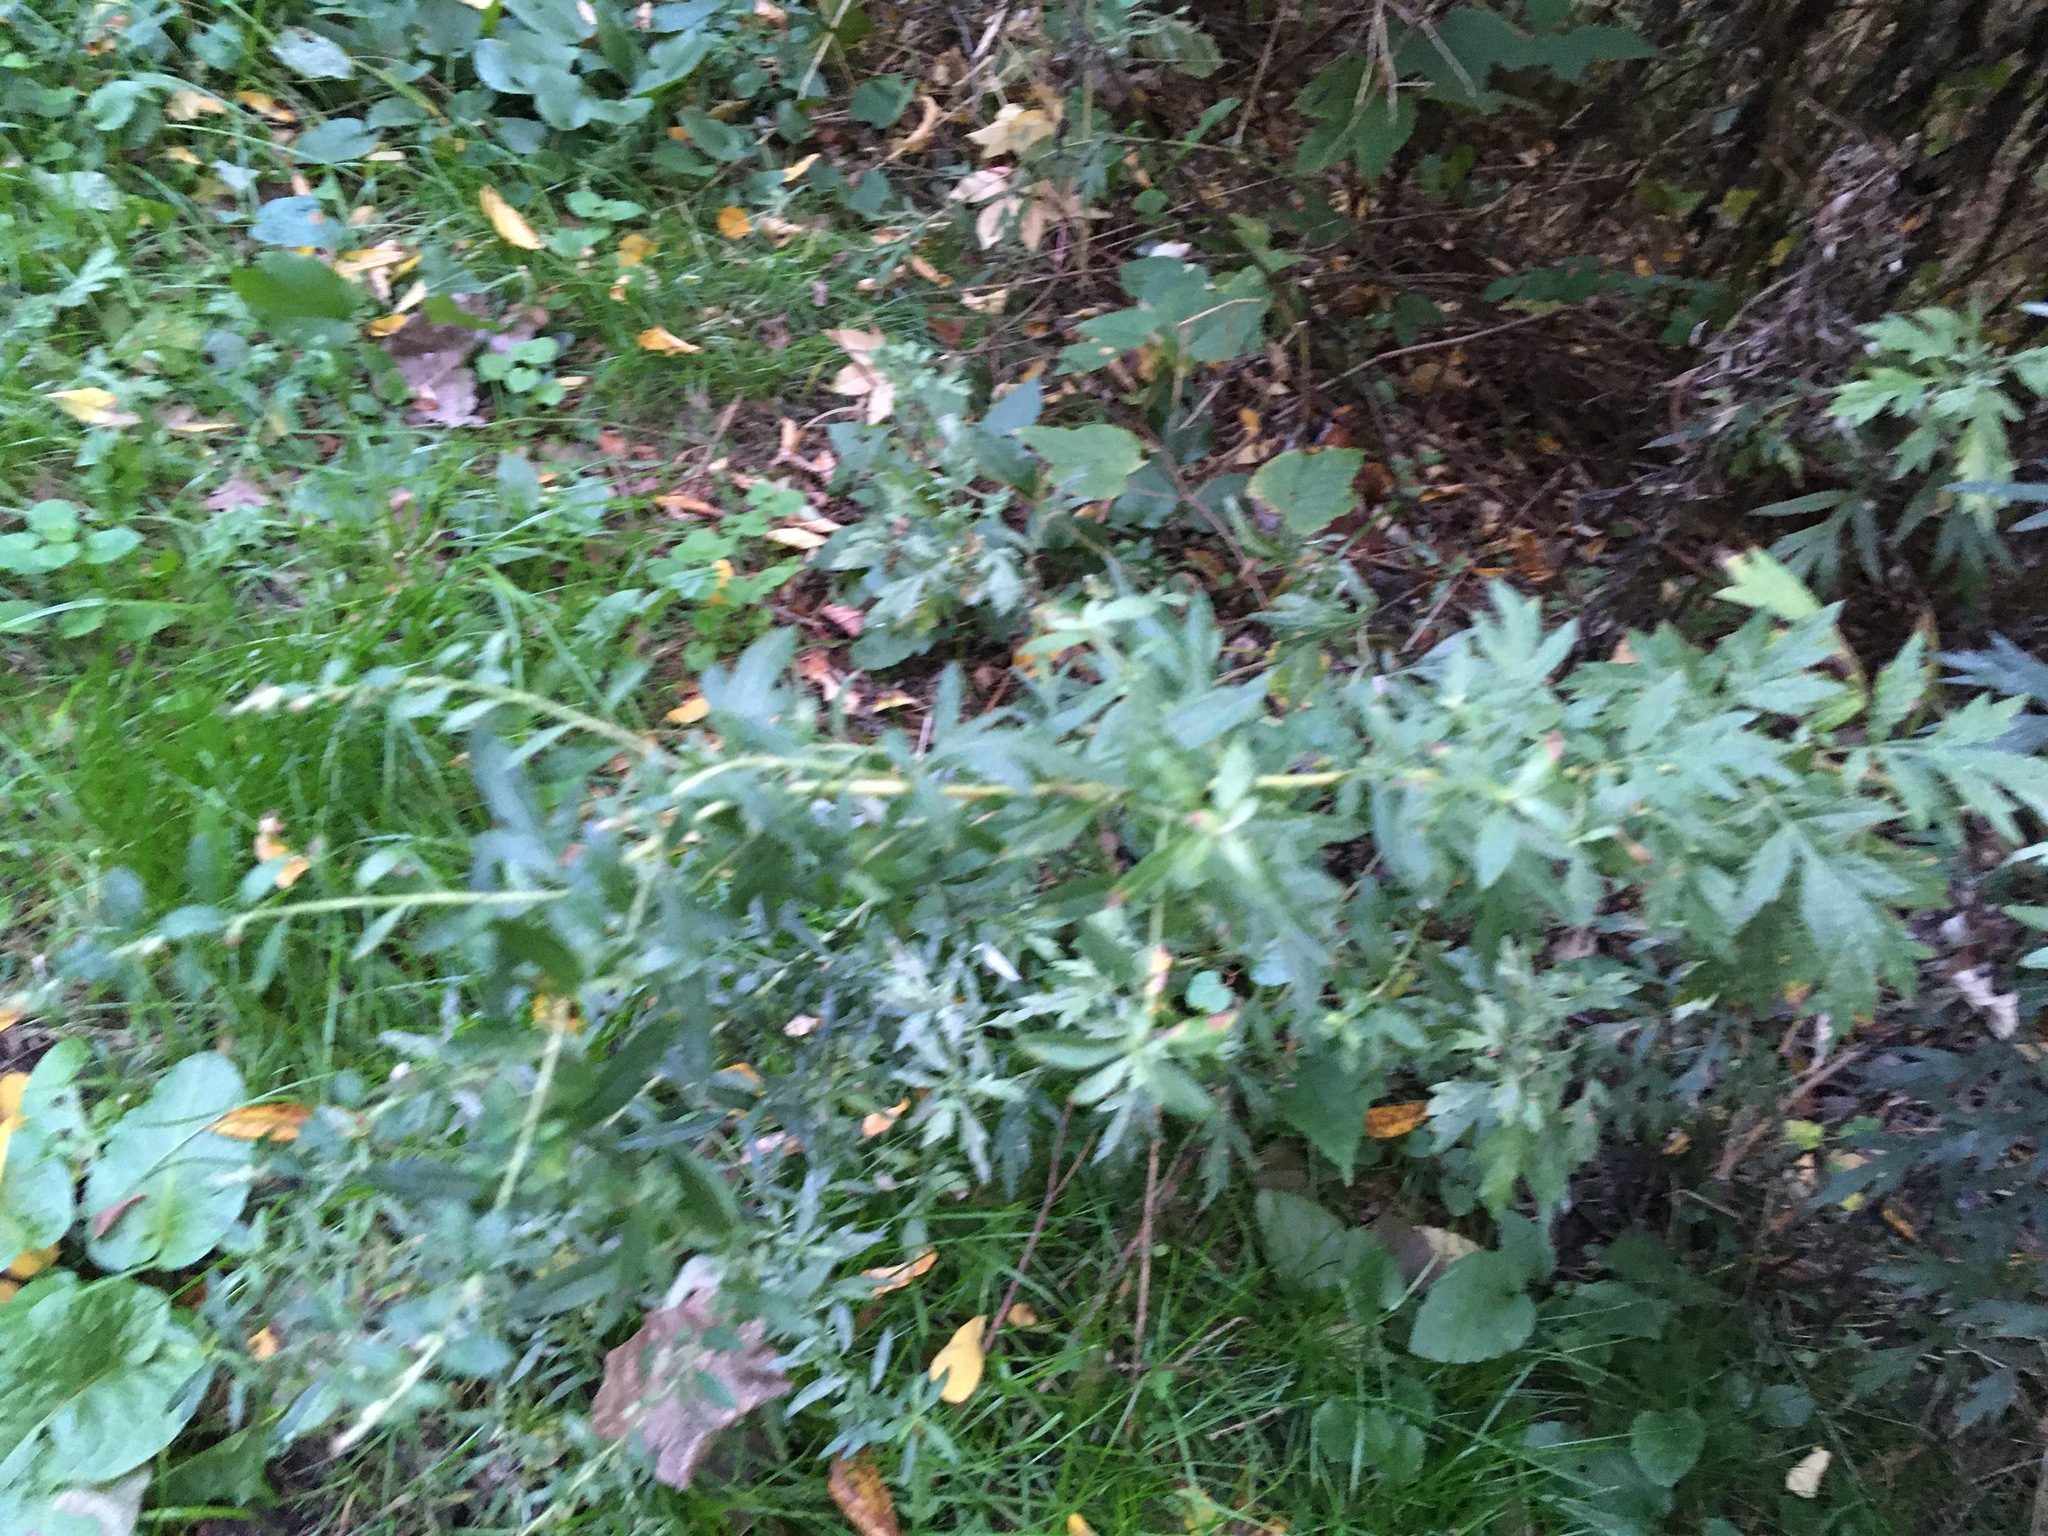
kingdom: Plantae
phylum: Tracheophyta
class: Magnoliopsida
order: Asterales
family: Asteraceae
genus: Artemisia
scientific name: Artemisia vulgaris
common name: Mugwort
